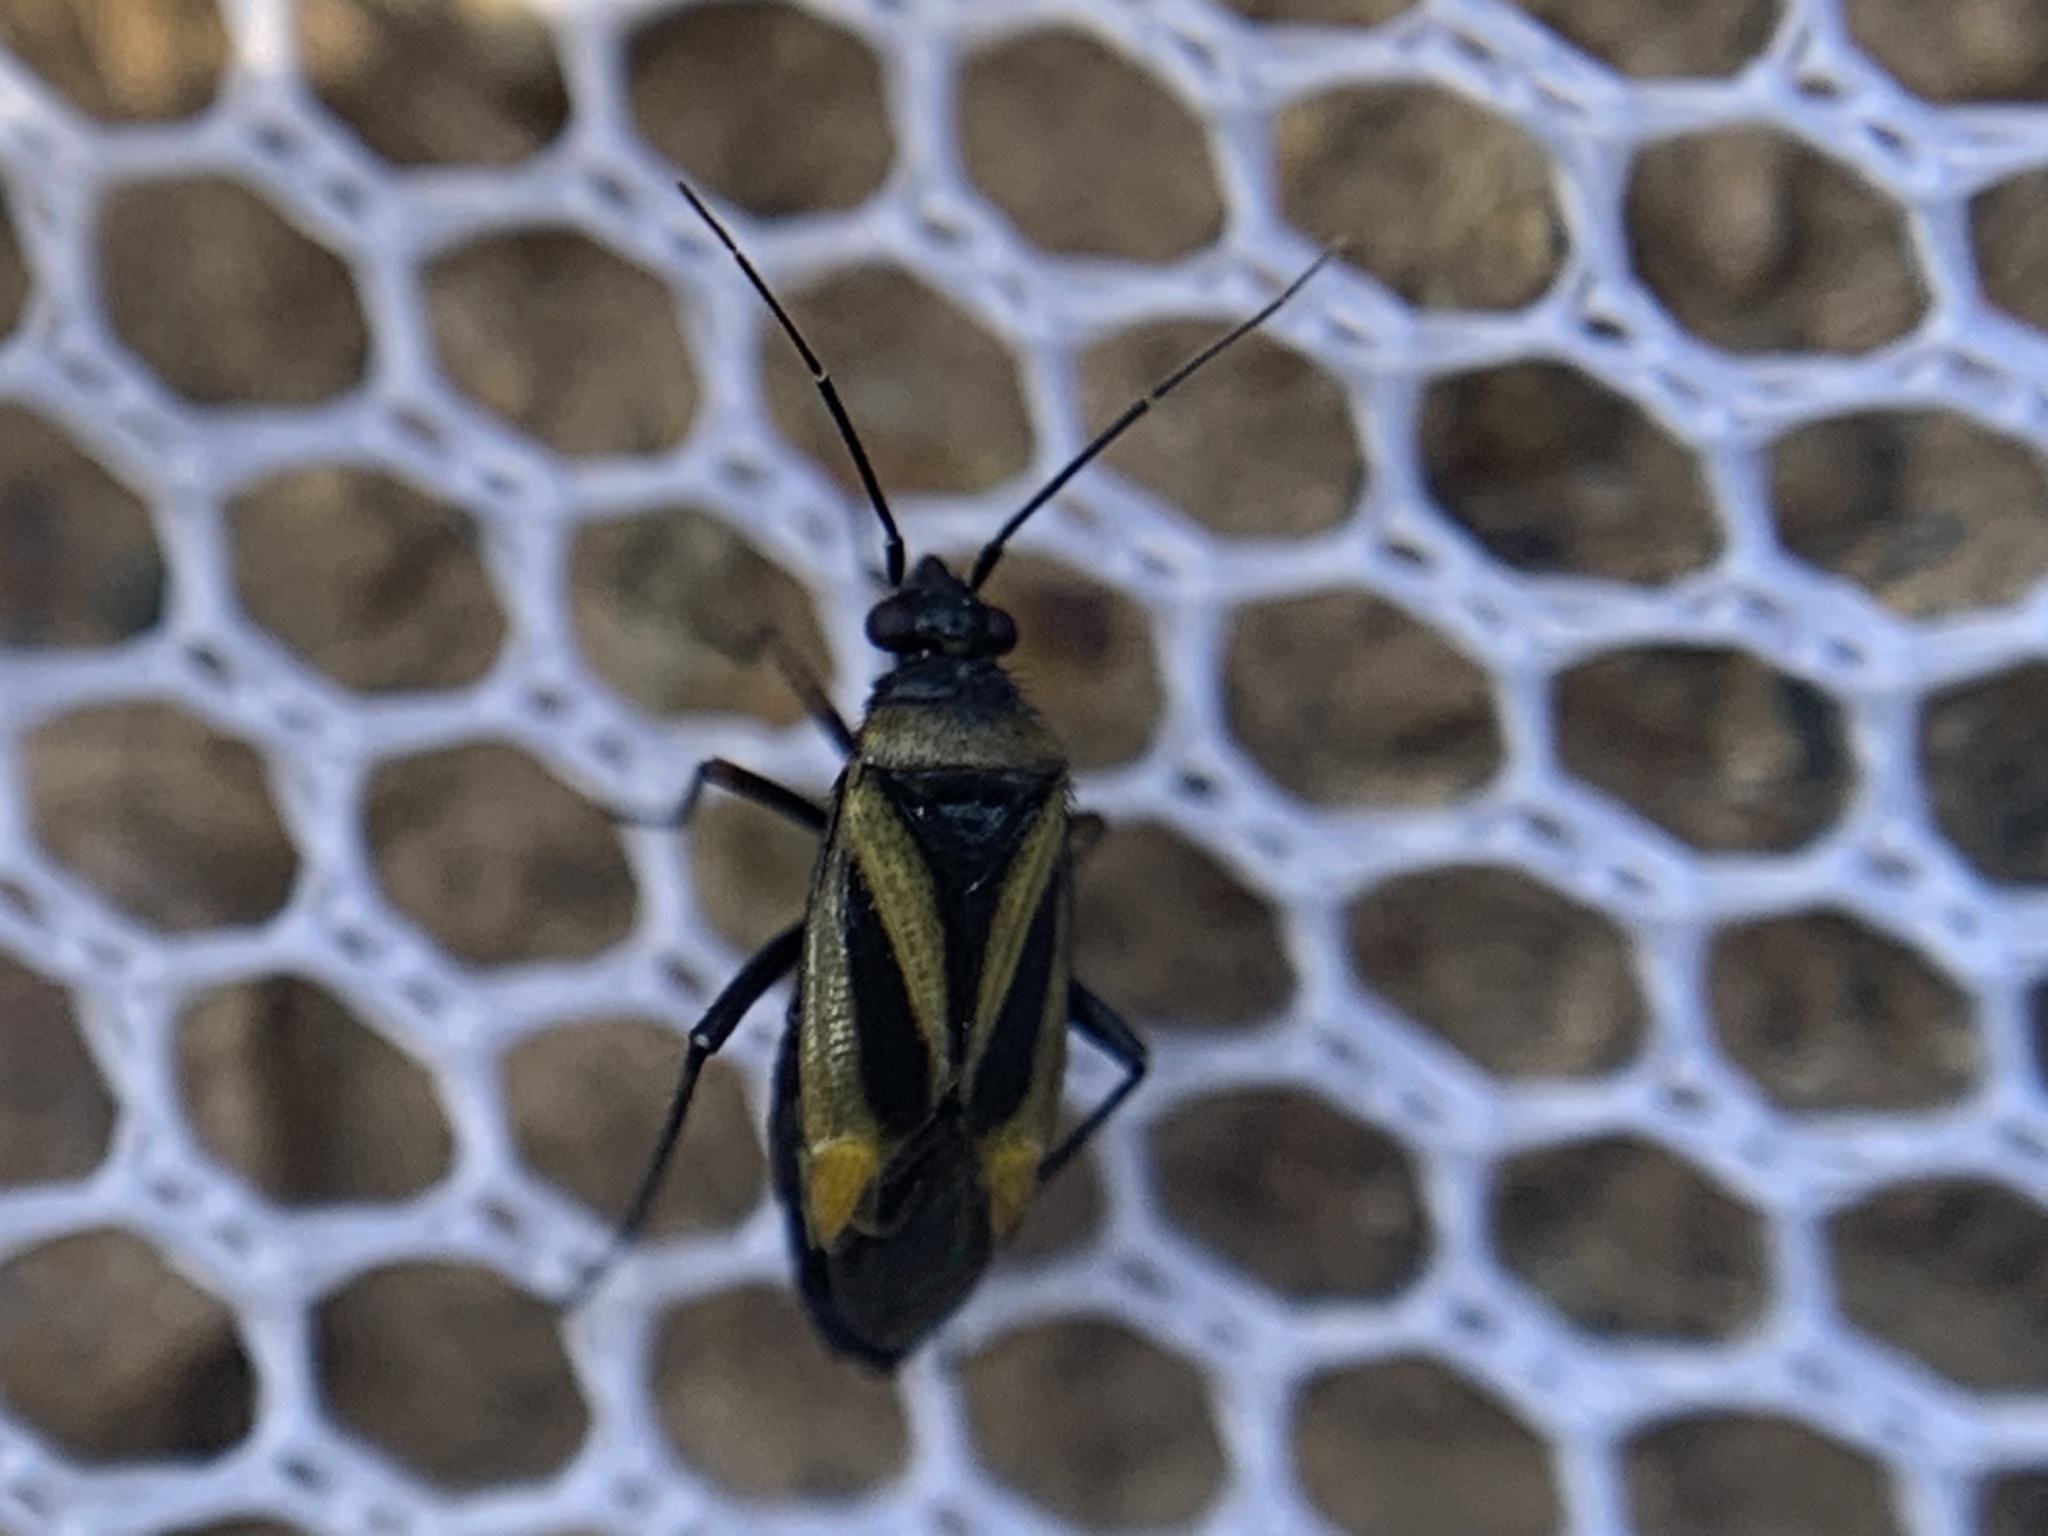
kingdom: Animalia
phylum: Arthropoda
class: Insecta
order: Hemiptera
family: Miridae
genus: Plagiognathus
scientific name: Plagiognathus moerens
